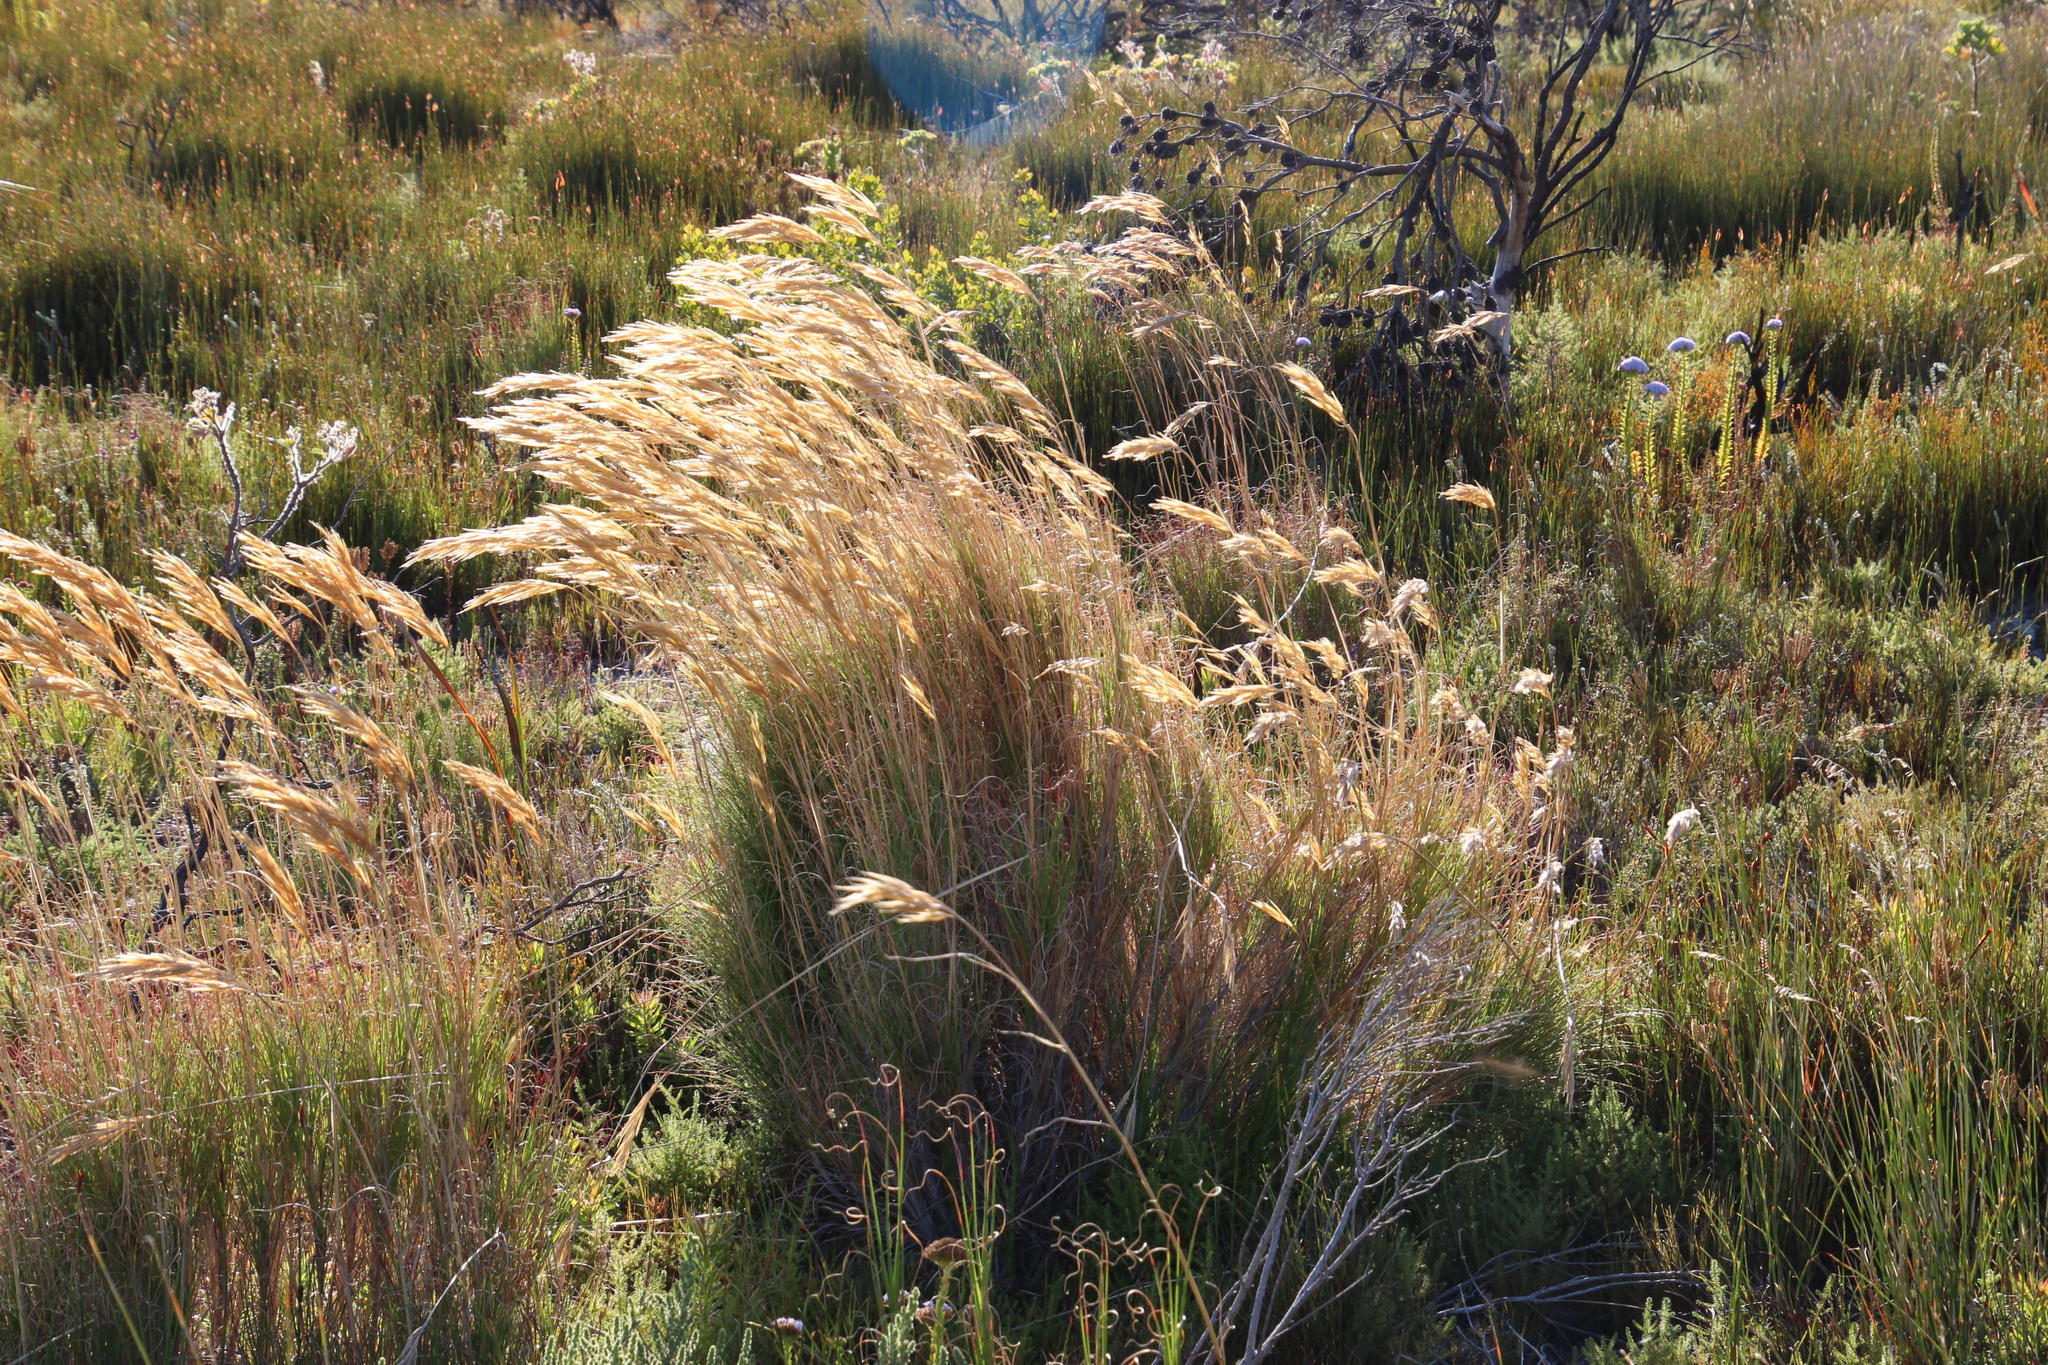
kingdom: Plantae
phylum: Tracheophyta
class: Liliopsida
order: Poales
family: Poaceae
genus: Pseudopentameris
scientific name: Pseudopentameris macrantha
